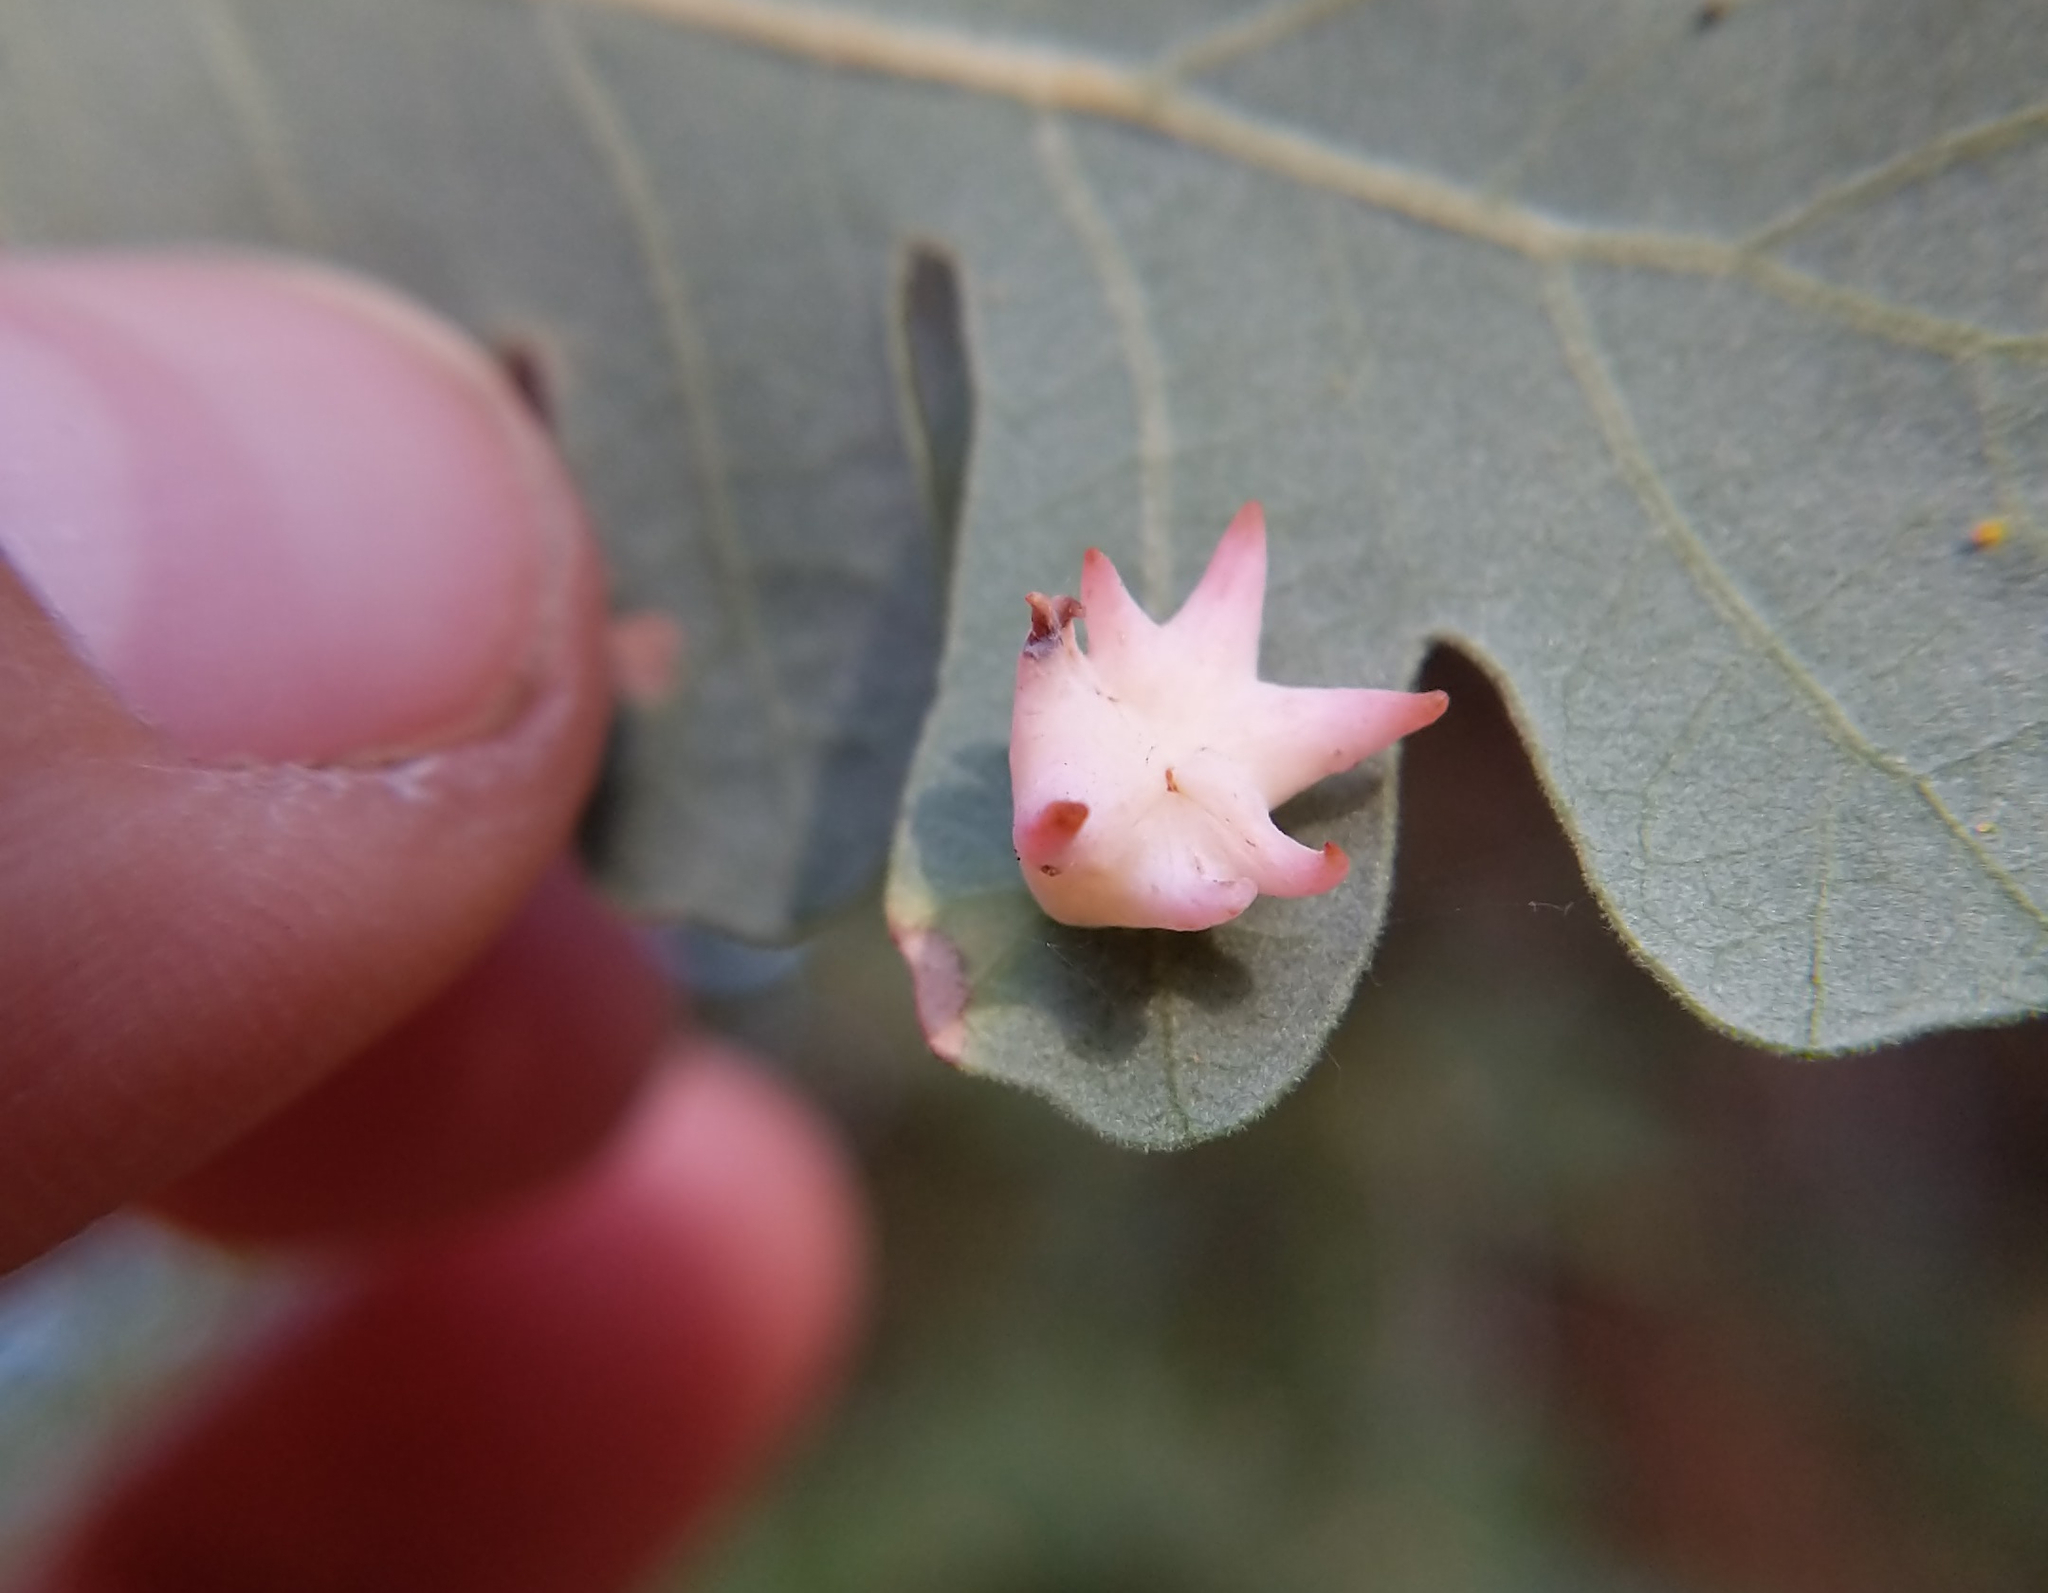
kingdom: Animalia
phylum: Arthropoda
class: Insecta
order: Hymenoptera
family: Cynipidae
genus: Cynips
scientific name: Cynips douglasi
